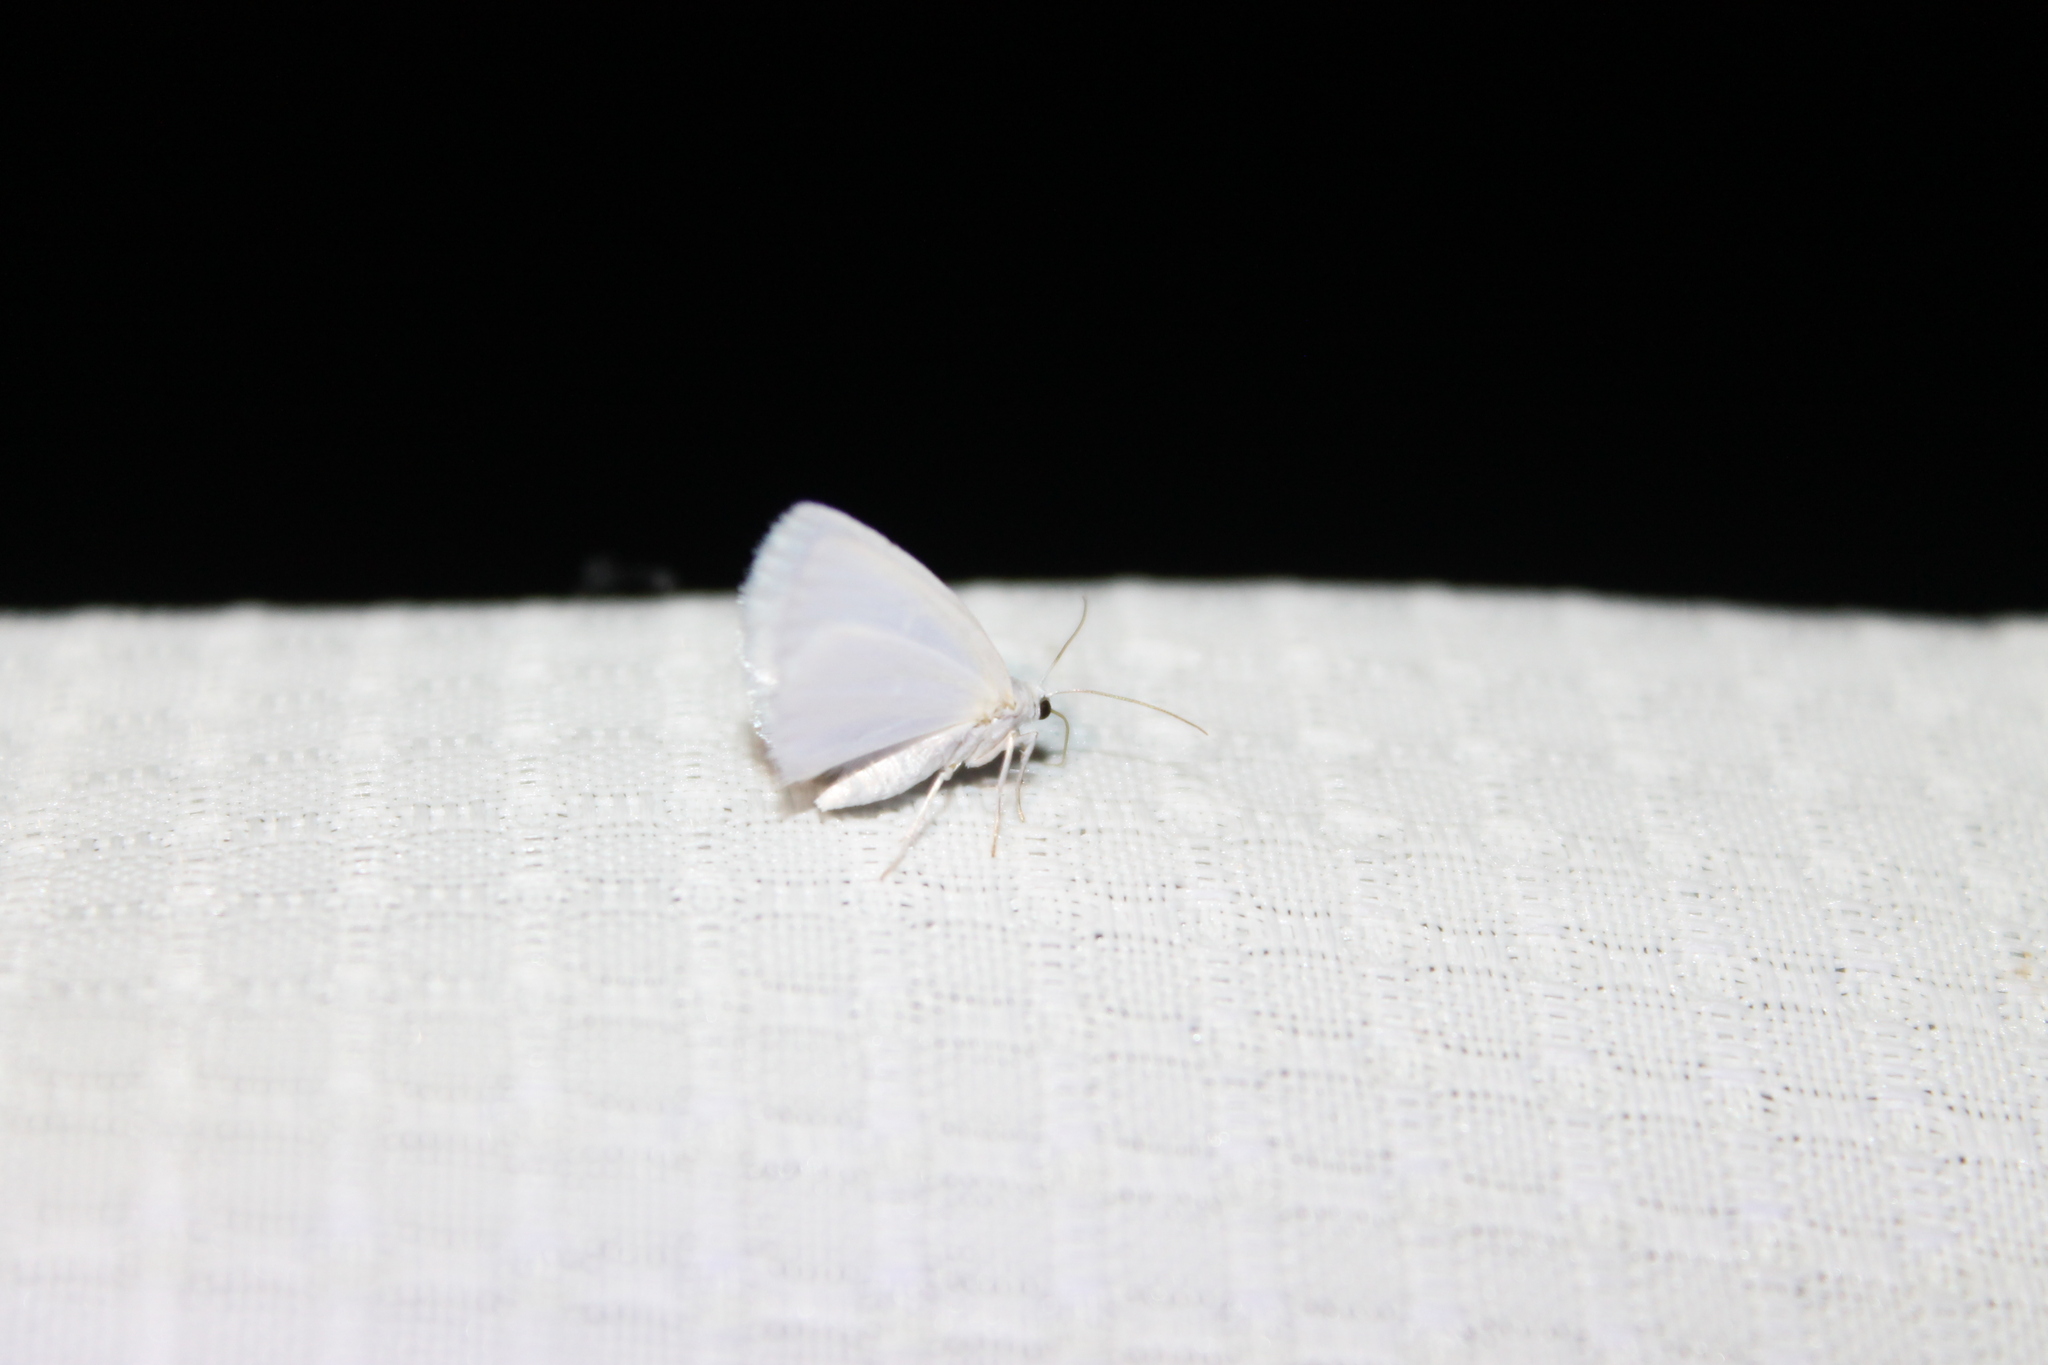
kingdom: Animalia
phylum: Arthropoda
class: Insecta
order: Lepidoptera
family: Geometridae
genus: Lomographa
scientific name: Lomographa vestaliata
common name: White spring moth
